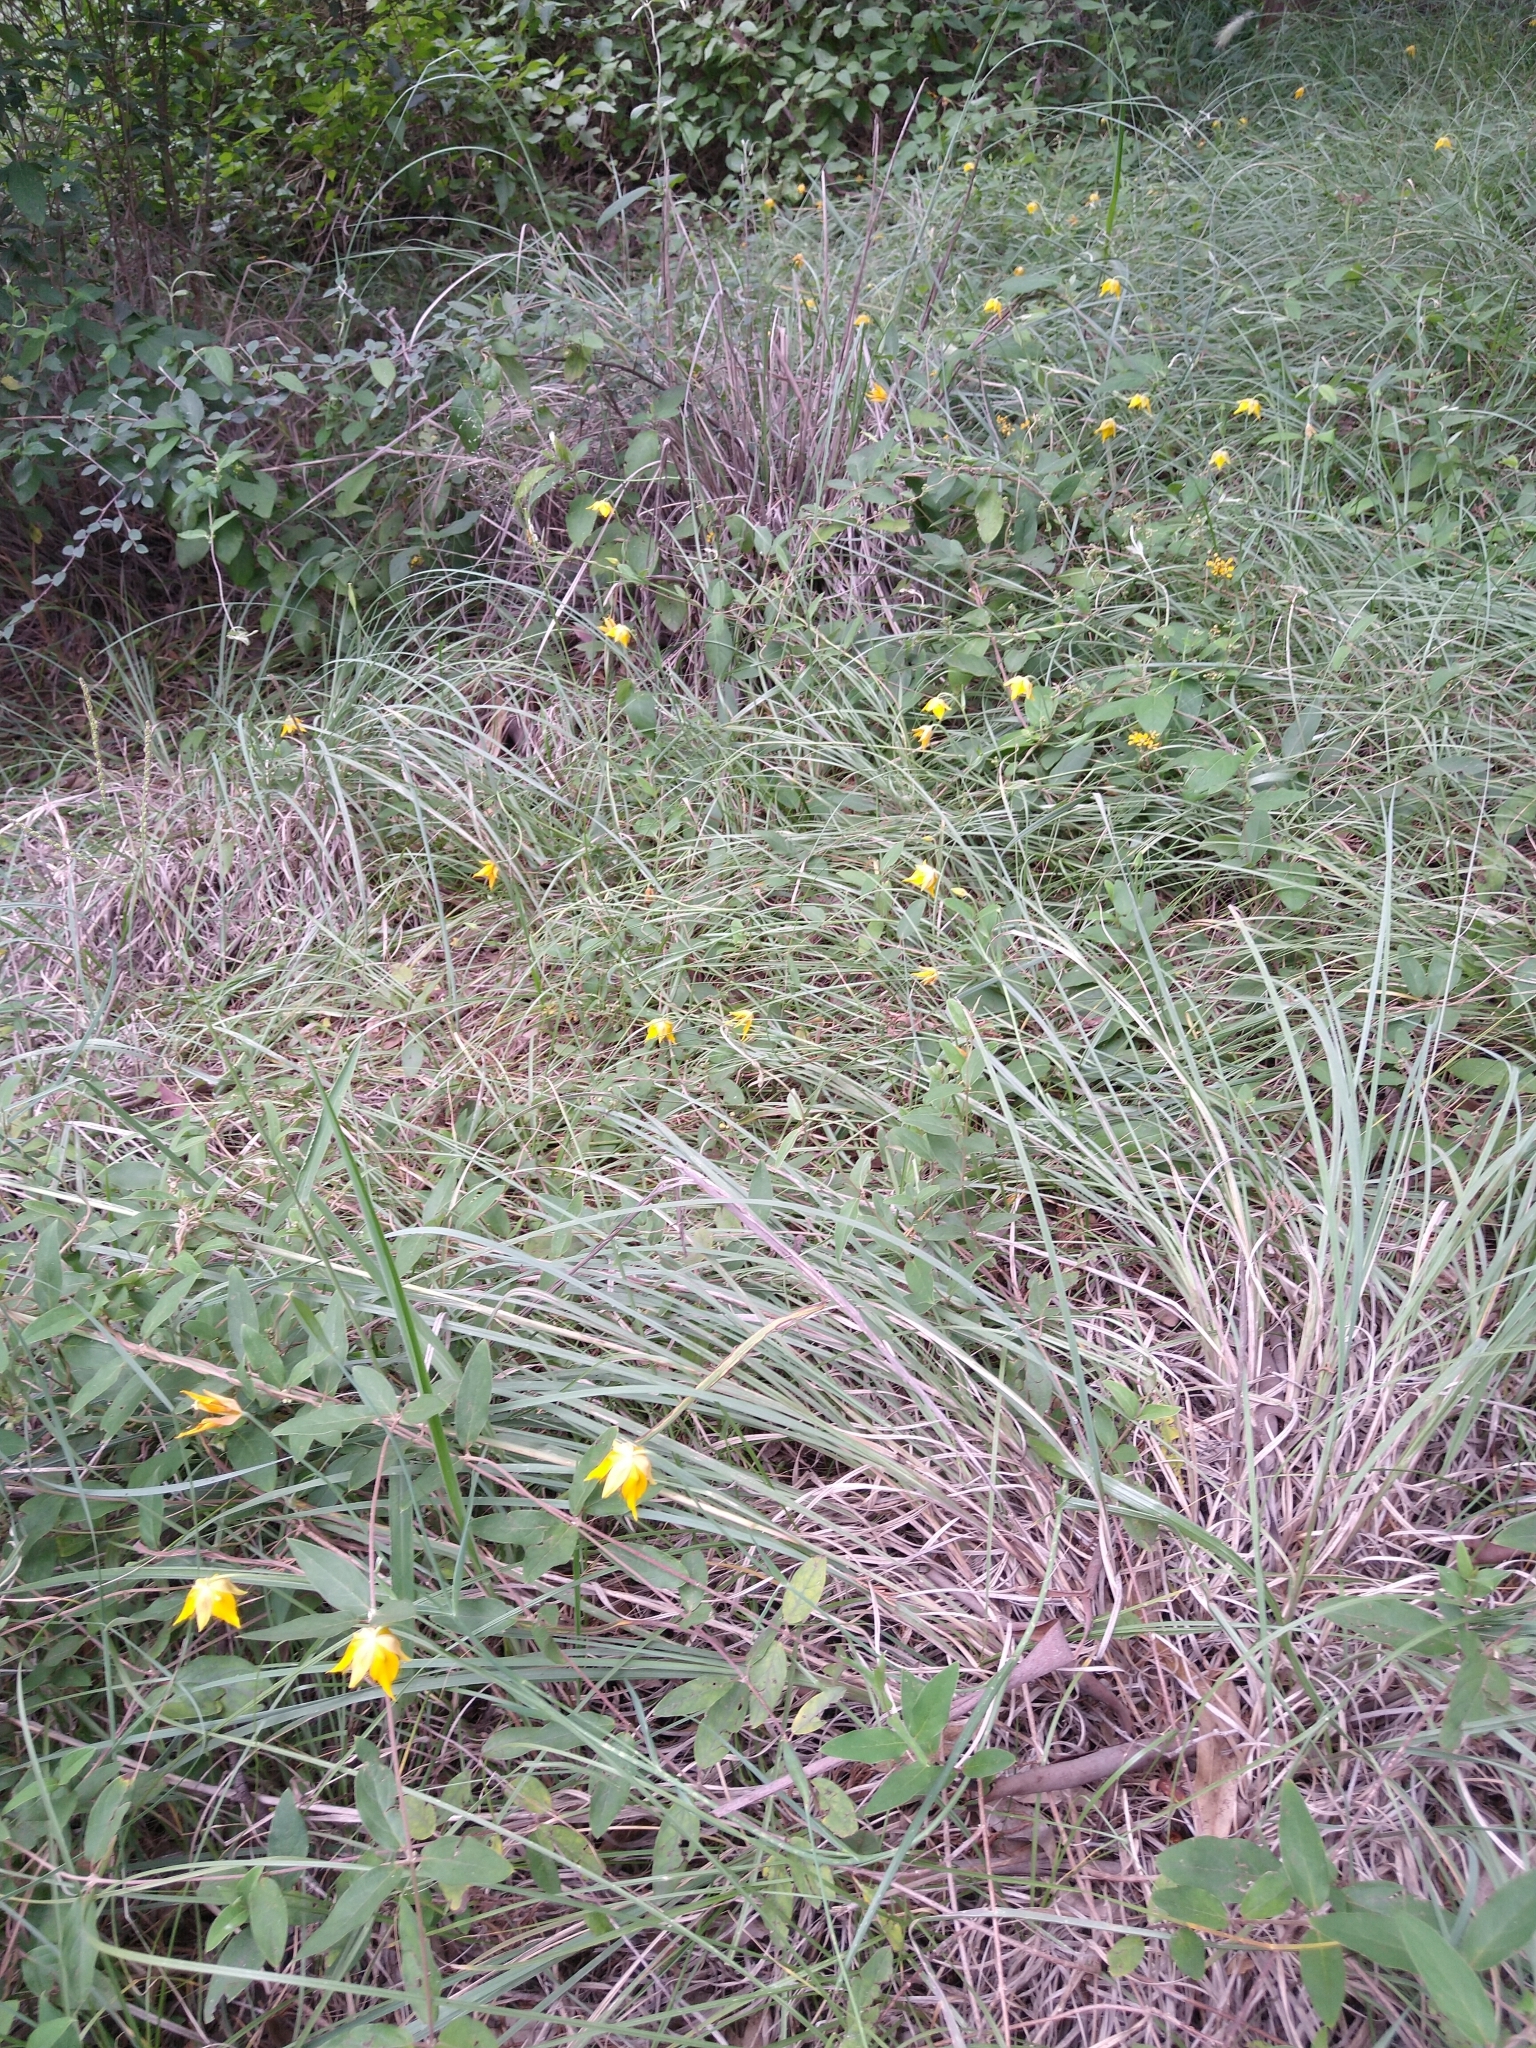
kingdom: Plantae
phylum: Tracheophyta
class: Liliopsida
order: Liliales
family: Liliaceae
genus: Calochortus
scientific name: Calochortus barbatus
